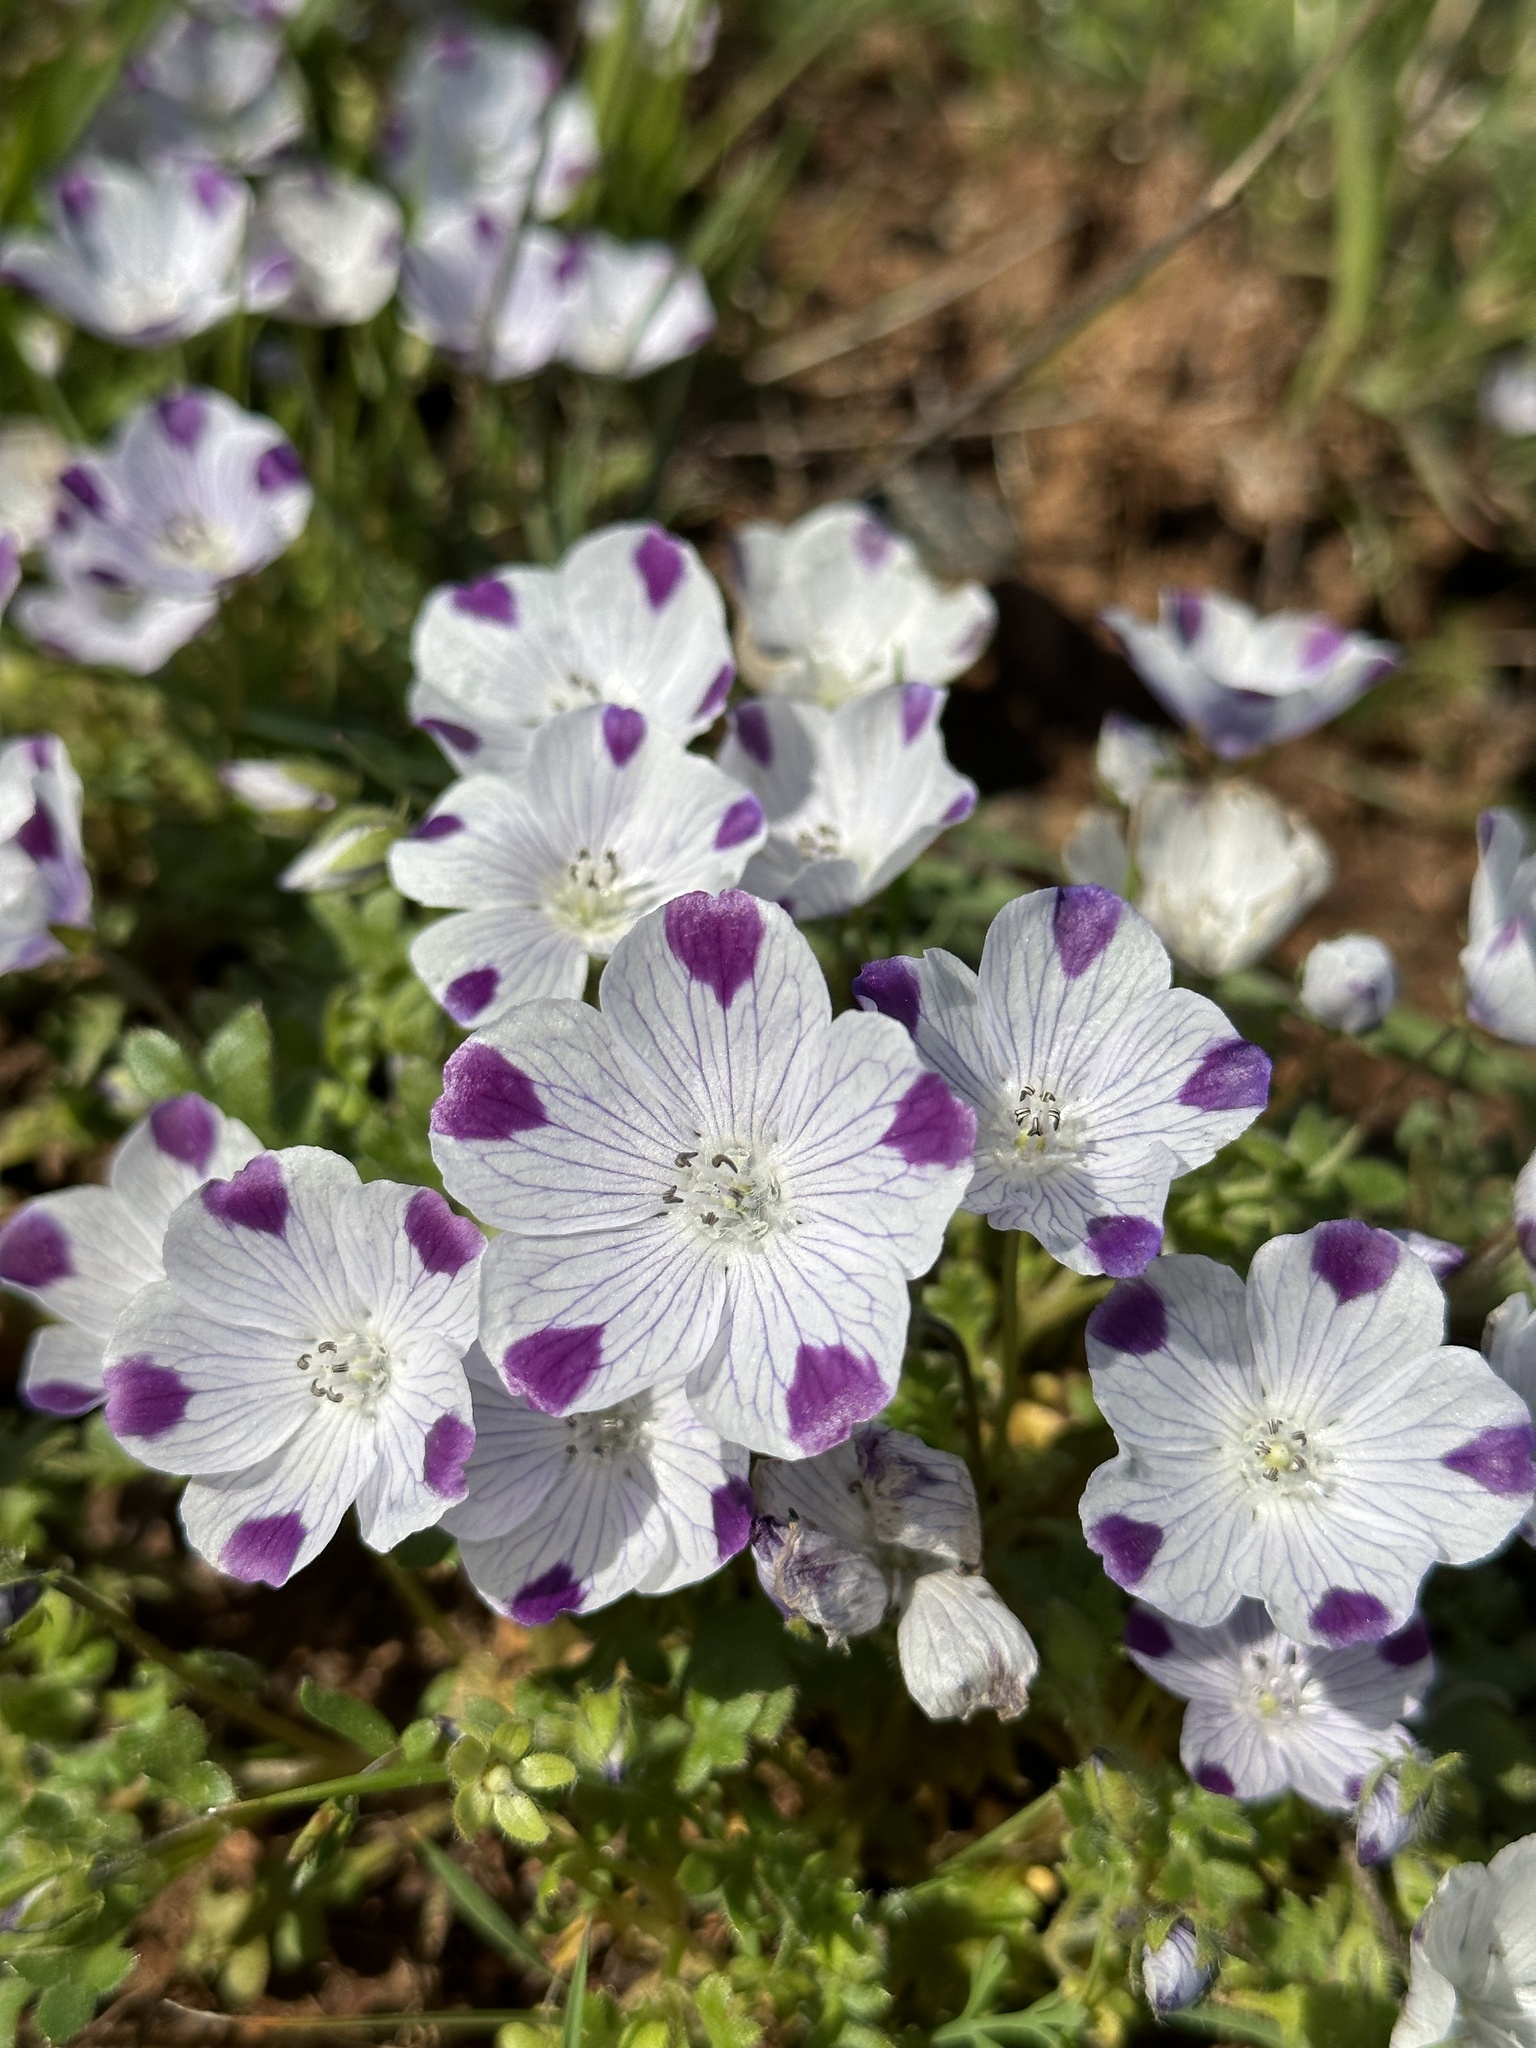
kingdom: Plantae
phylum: Tracheophyta
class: Magnoliopsida
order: Boraginales
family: Hydrophyllaceae
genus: Nemophila
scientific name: Nemophila maculata
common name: Fivespot
